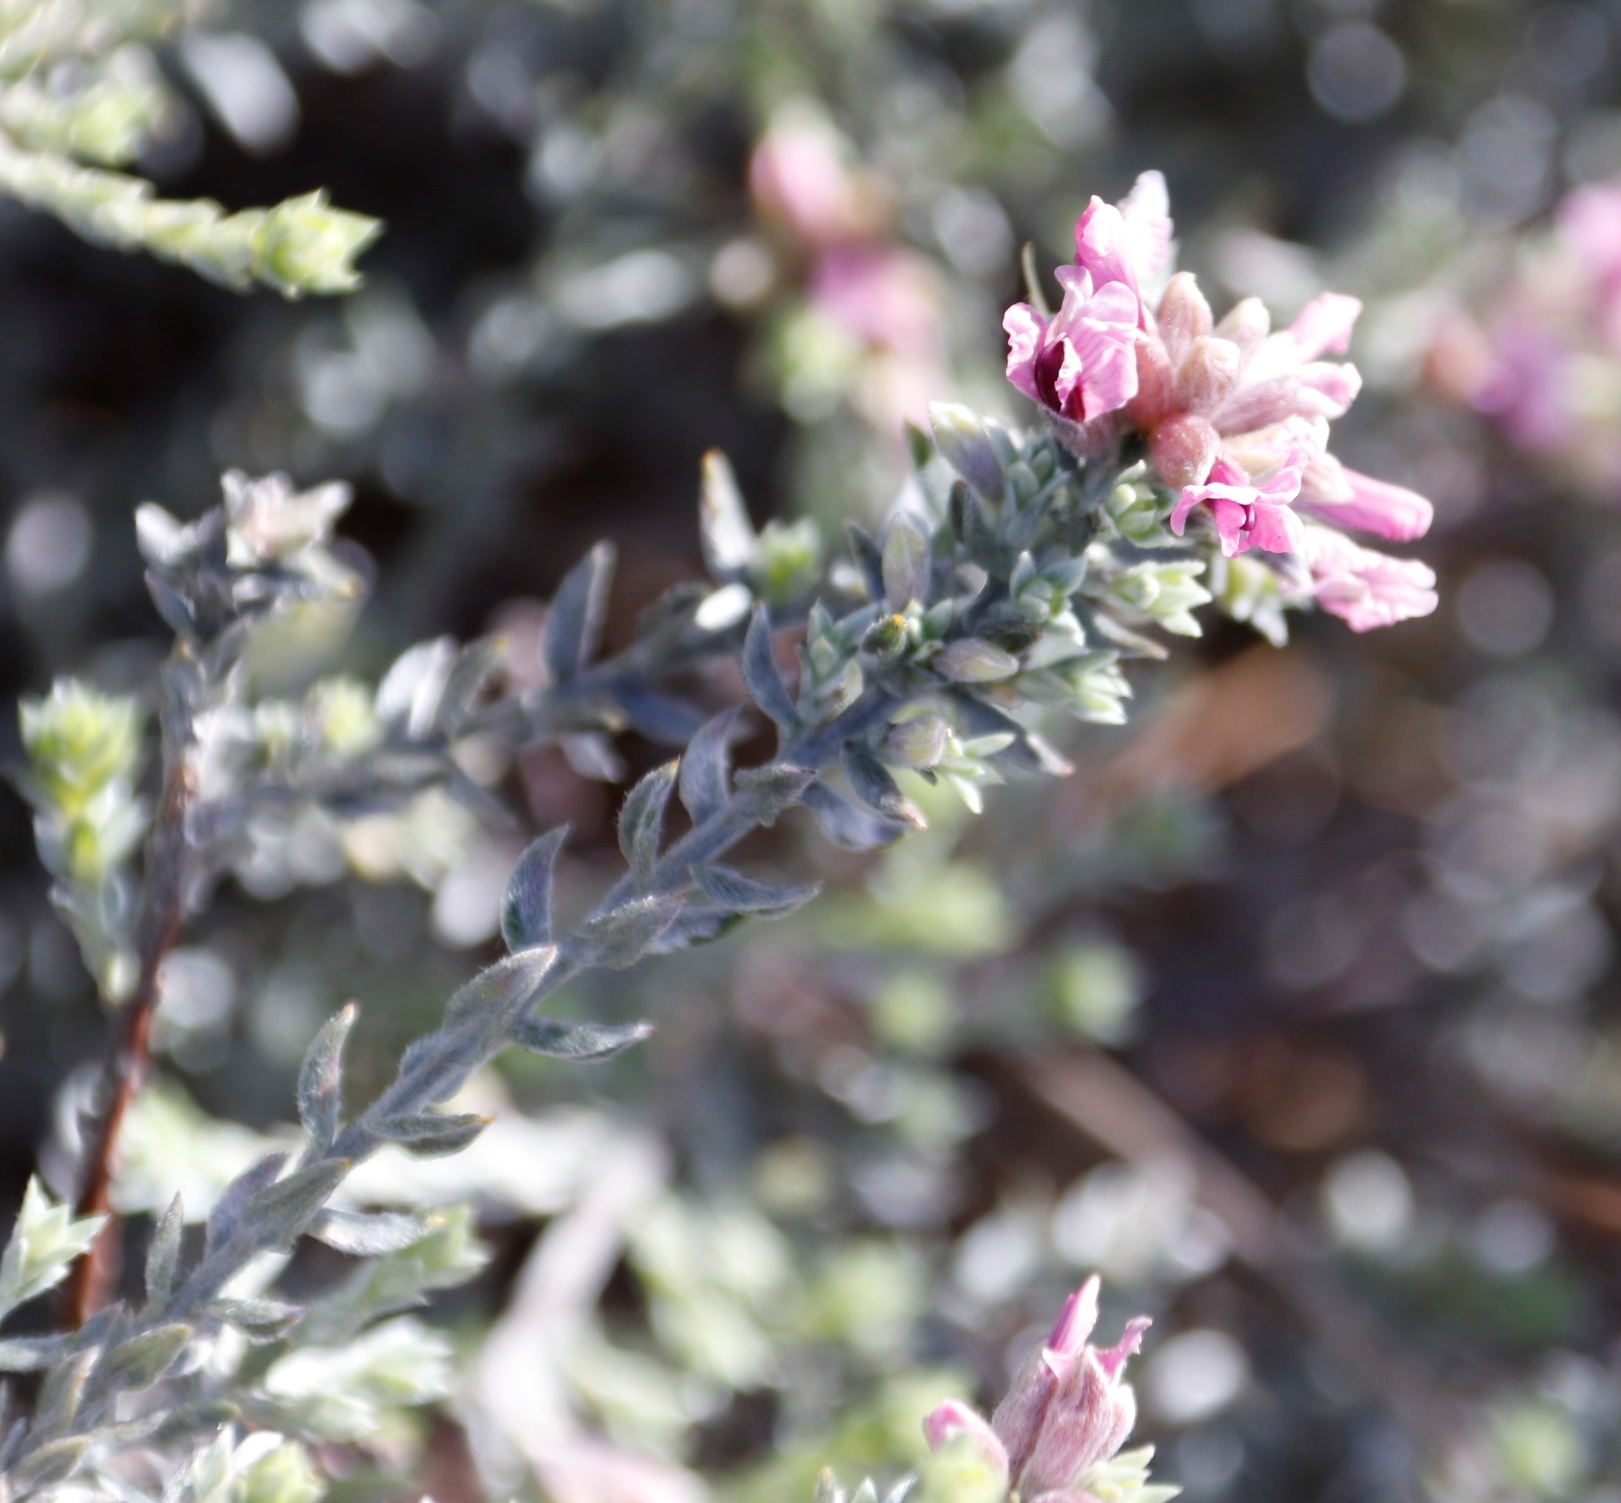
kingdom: Plantae
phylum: Tracheophyta
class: Magnoliopsida
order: Fabales
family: Fabaceae
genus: Amphithalea
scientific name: Amphithalea ericifolia
